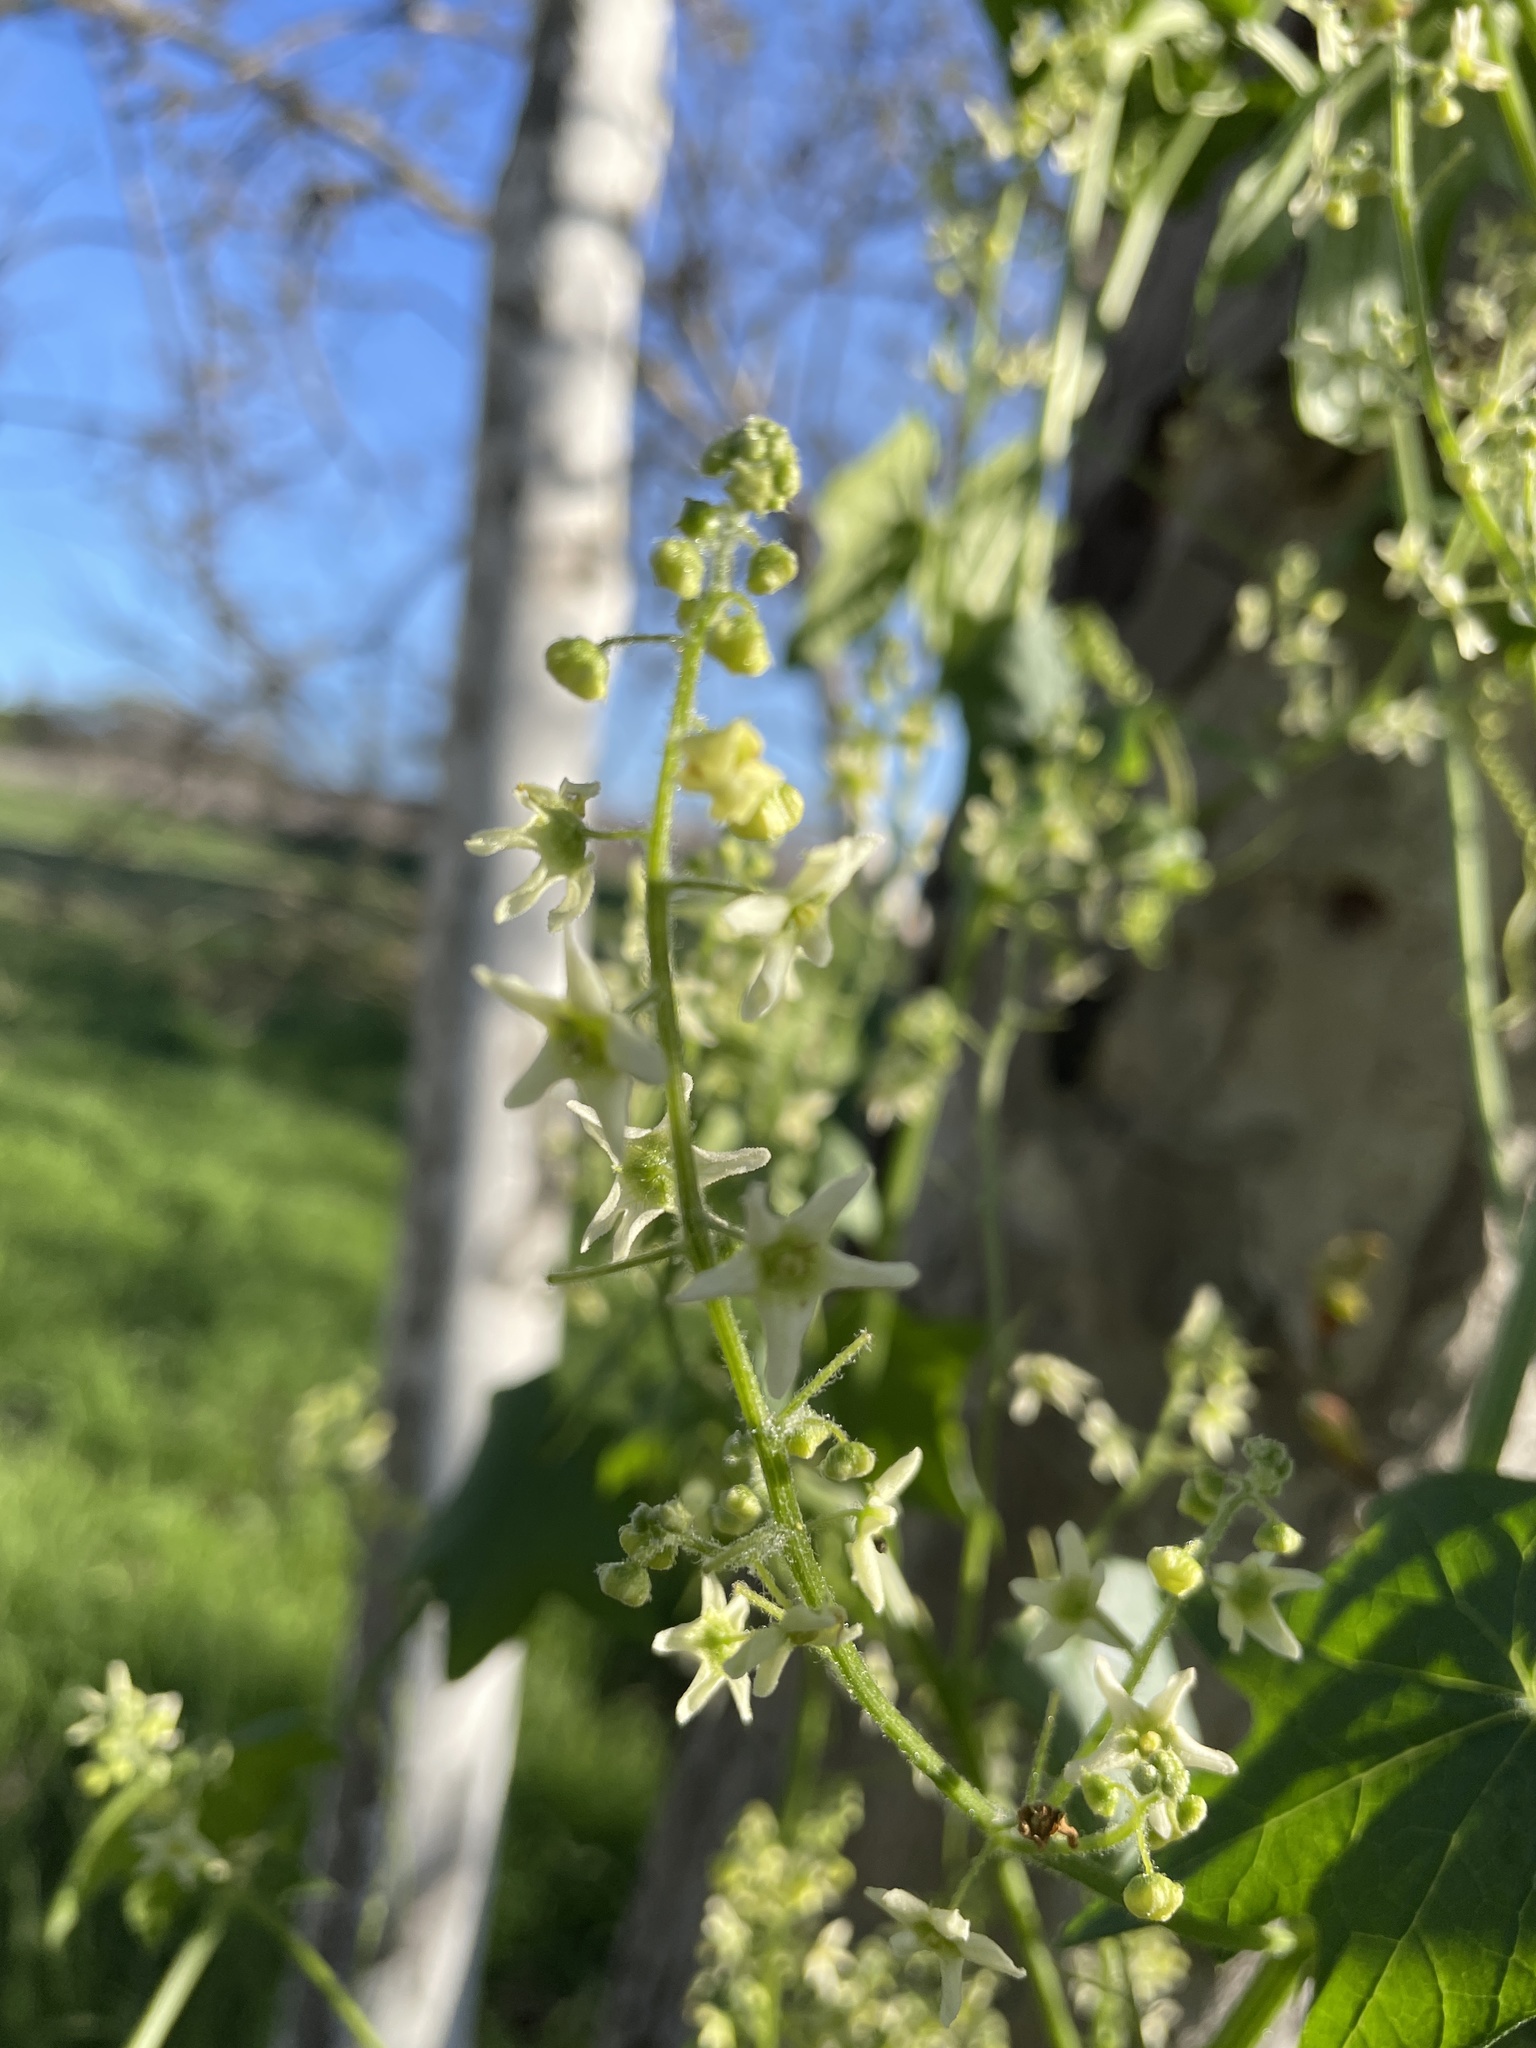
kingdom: Plantae
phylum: Tracheophyta
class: Magnoliopsida
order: Cucurbitales
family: Cucurbitaceae
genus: Marah
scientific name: Marah fabacea
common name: California manroot
